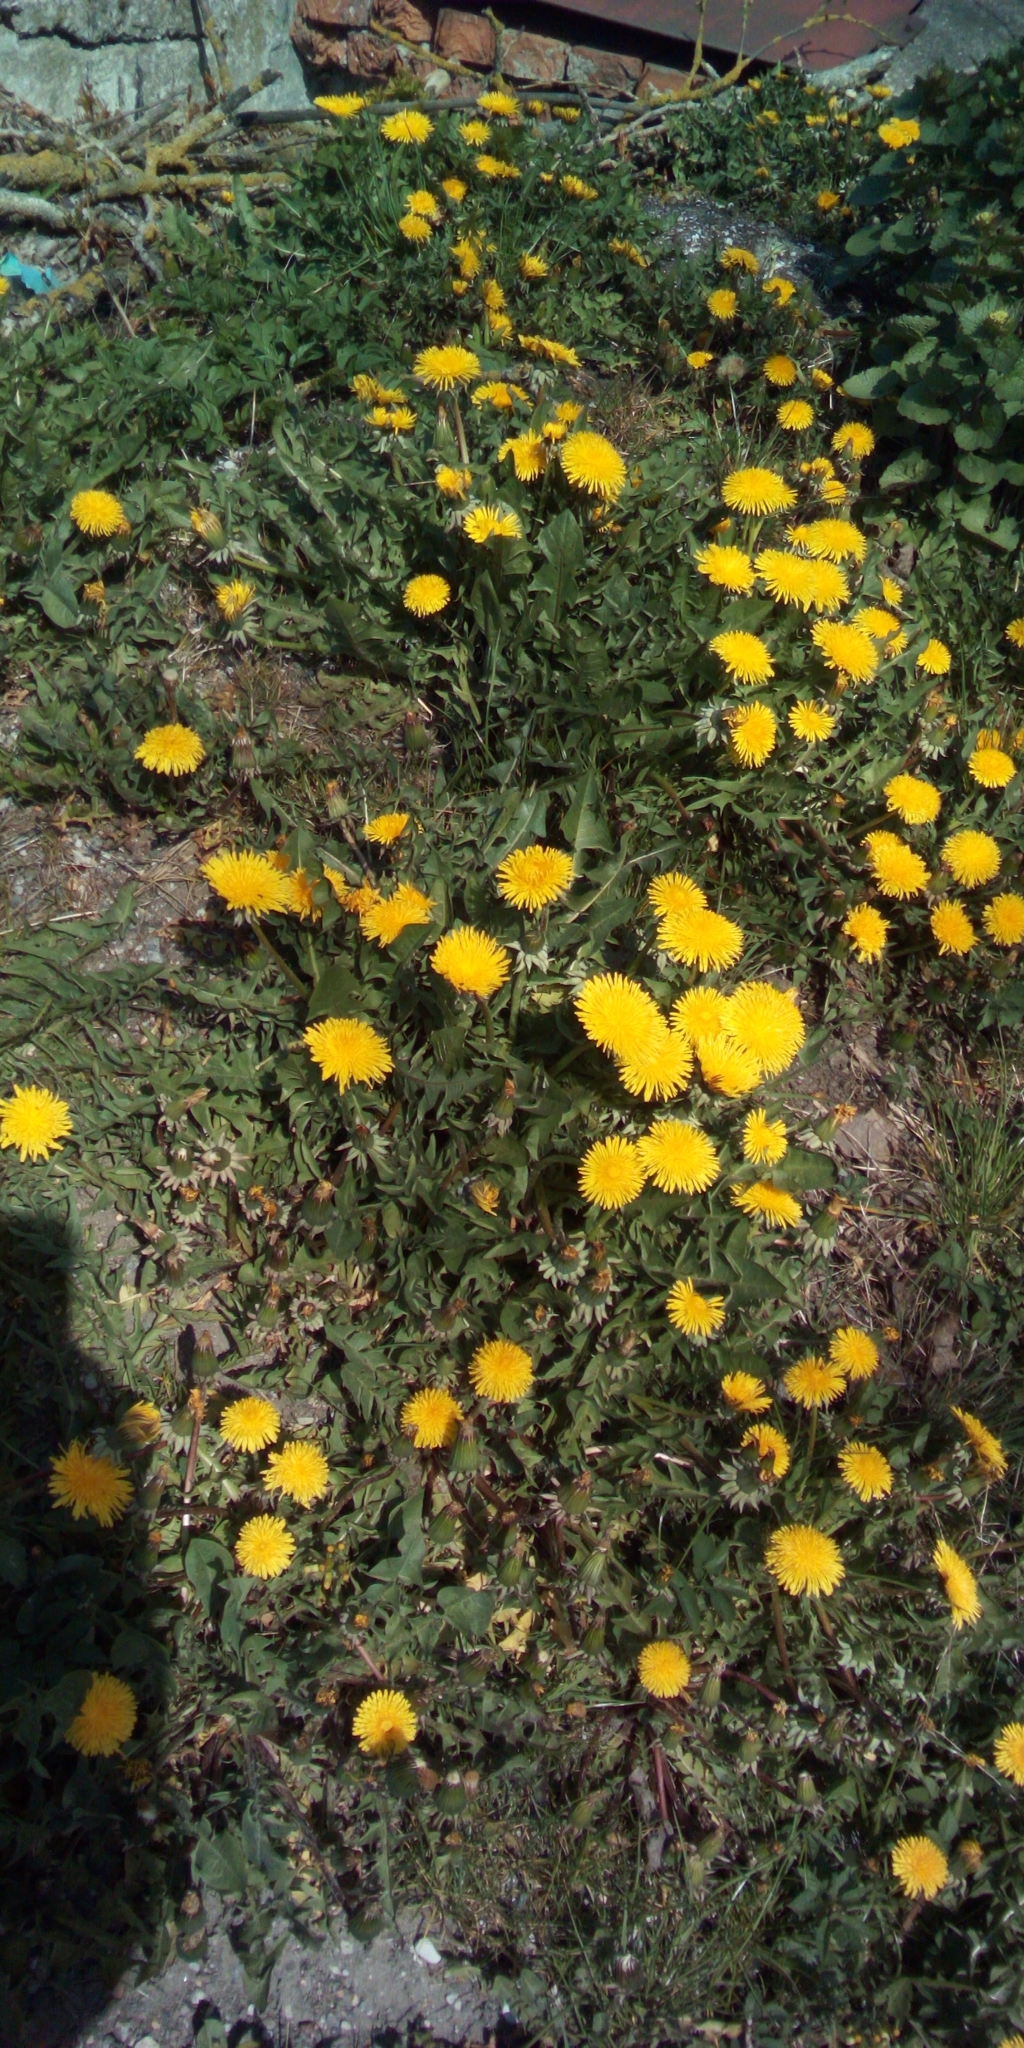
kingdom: Plantae
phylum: Tracheophyta
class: Magnoliopsida
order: Asterales
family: Asteraceae
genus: Taraxacum
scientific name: Taraxacum officinale
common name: Common dandelion
